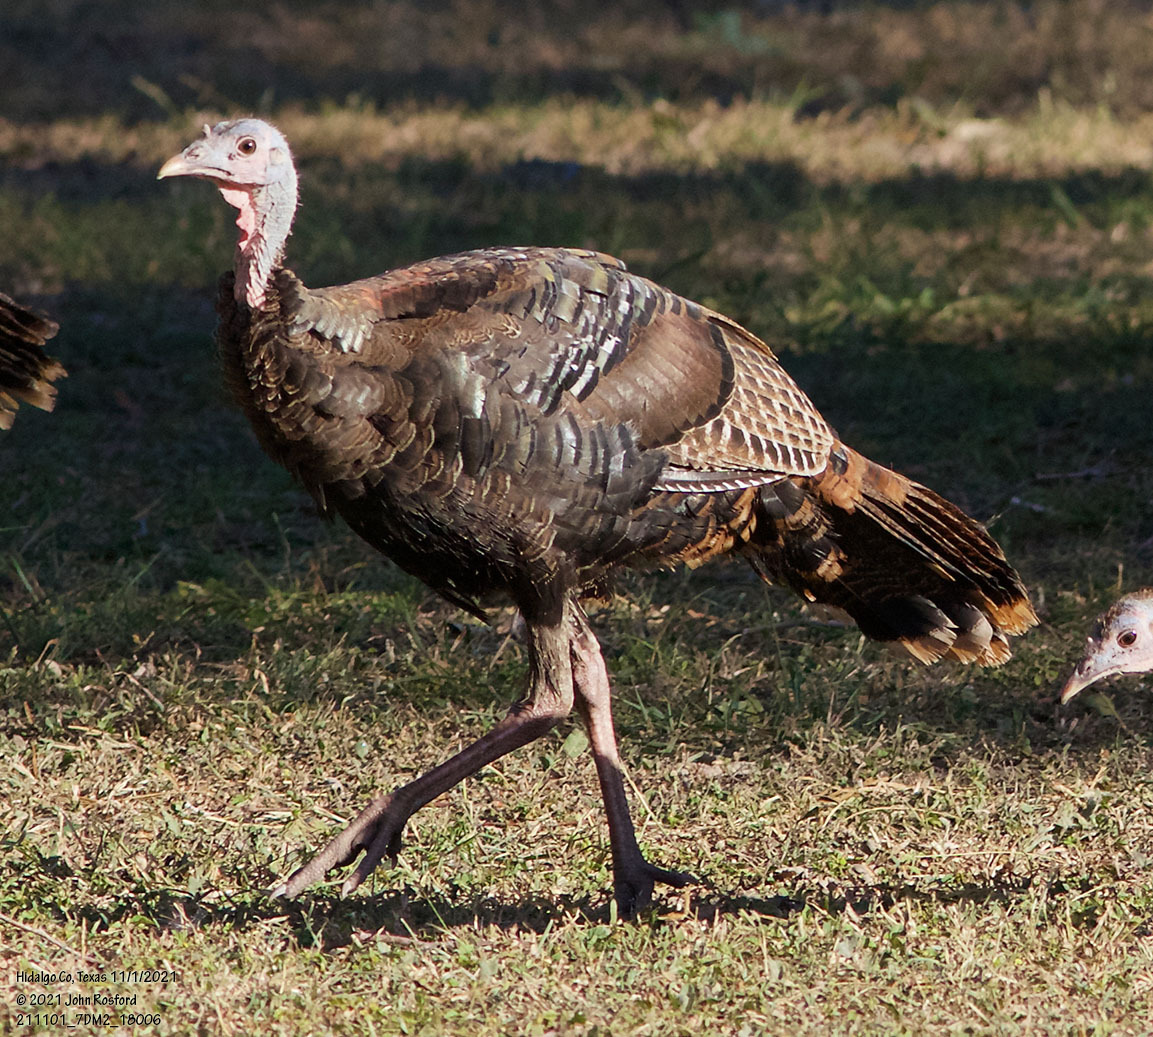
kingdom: Animalia
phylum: Chordata
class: Aves
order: Galliformes
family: Phasianidae
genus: Meleagris
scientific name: Meleagris gallopavo
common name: Wild turkey
